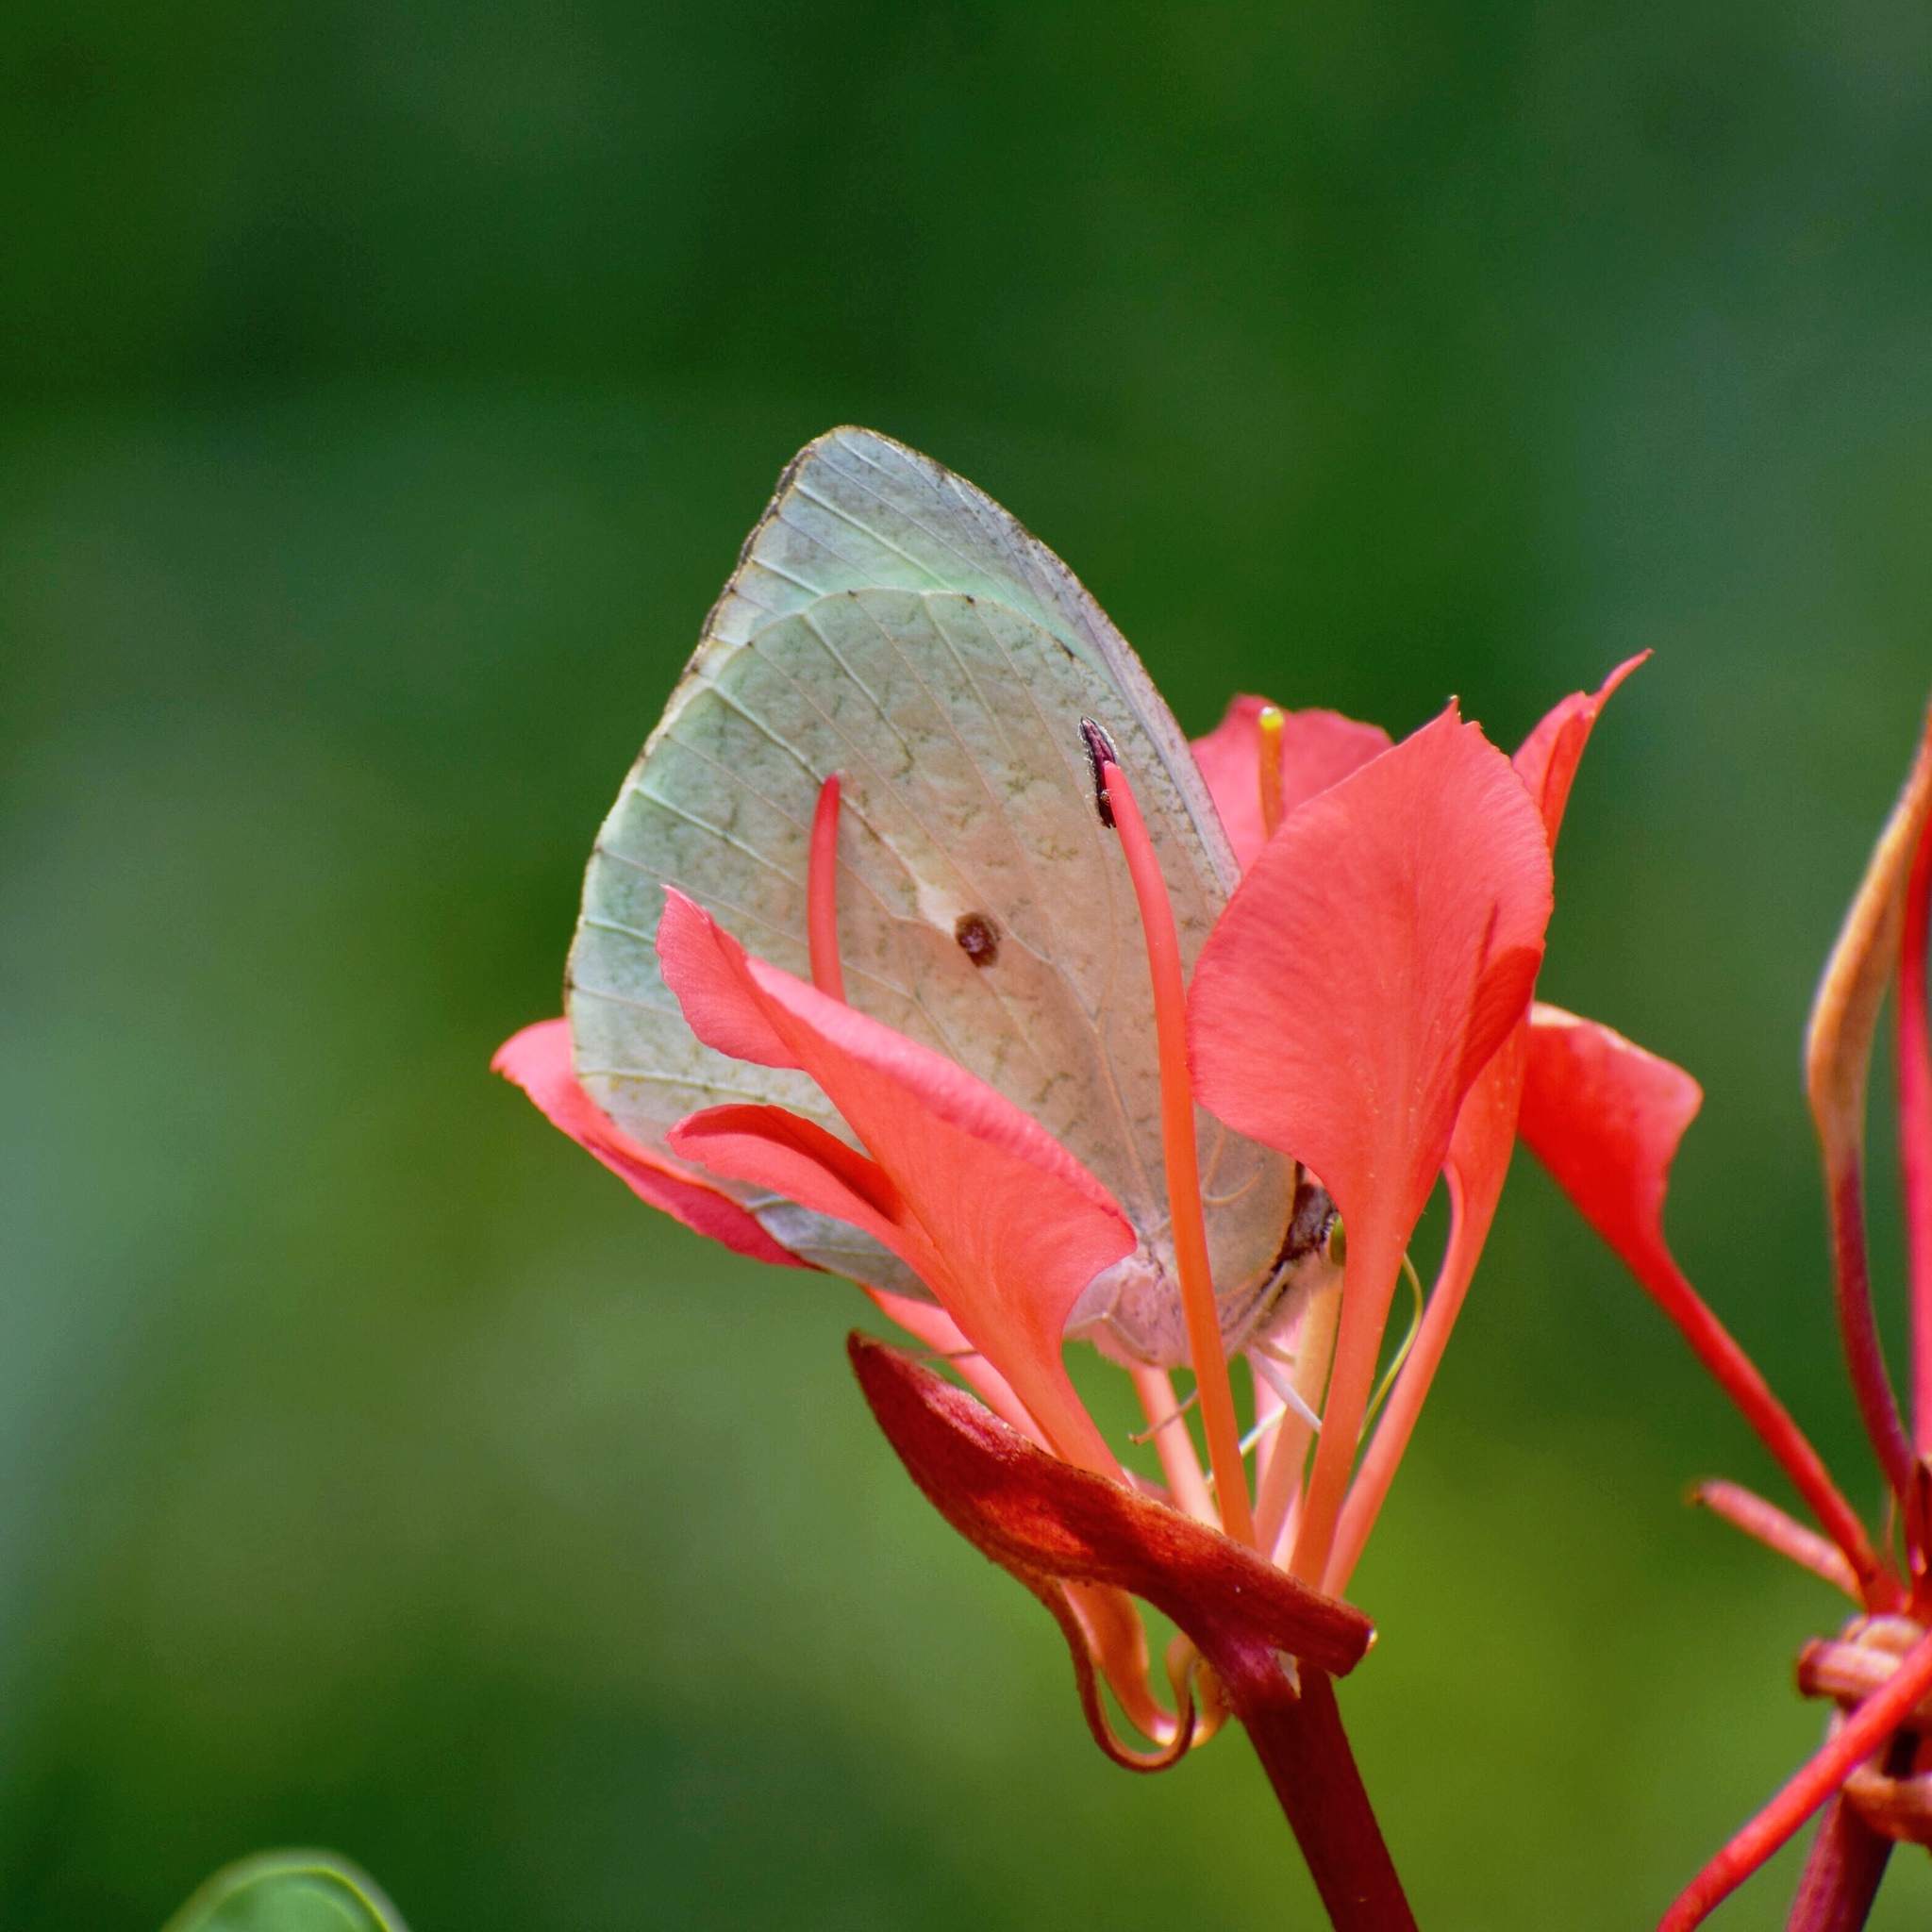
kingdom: Animalia
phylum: Arthropoda
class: Insecta
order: Lepidoptera
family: Pieridae
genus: Nepheronia
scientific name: Nepheronia buquetii
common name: Plain vagrant
